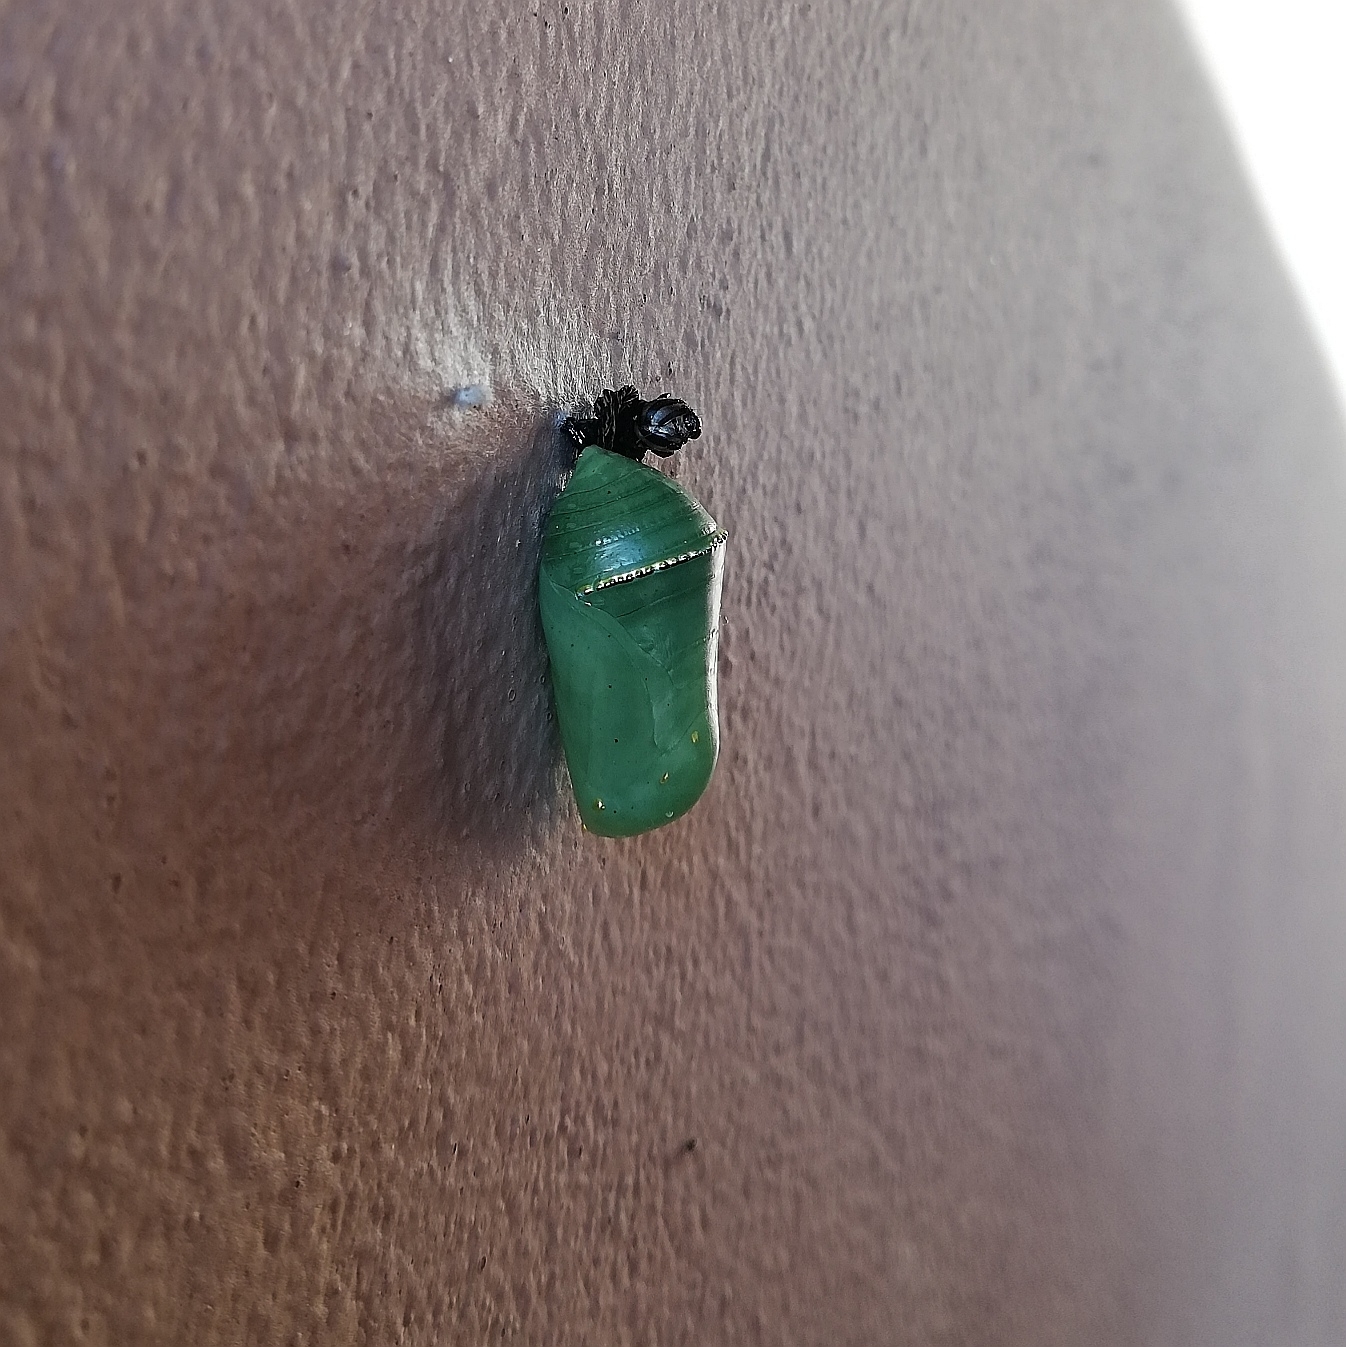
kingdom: Animalia
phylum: Arthropoda
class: Insecta
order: Lepidoptera
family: Nymphalidae
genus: Danaus
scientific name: Danaus erippus
